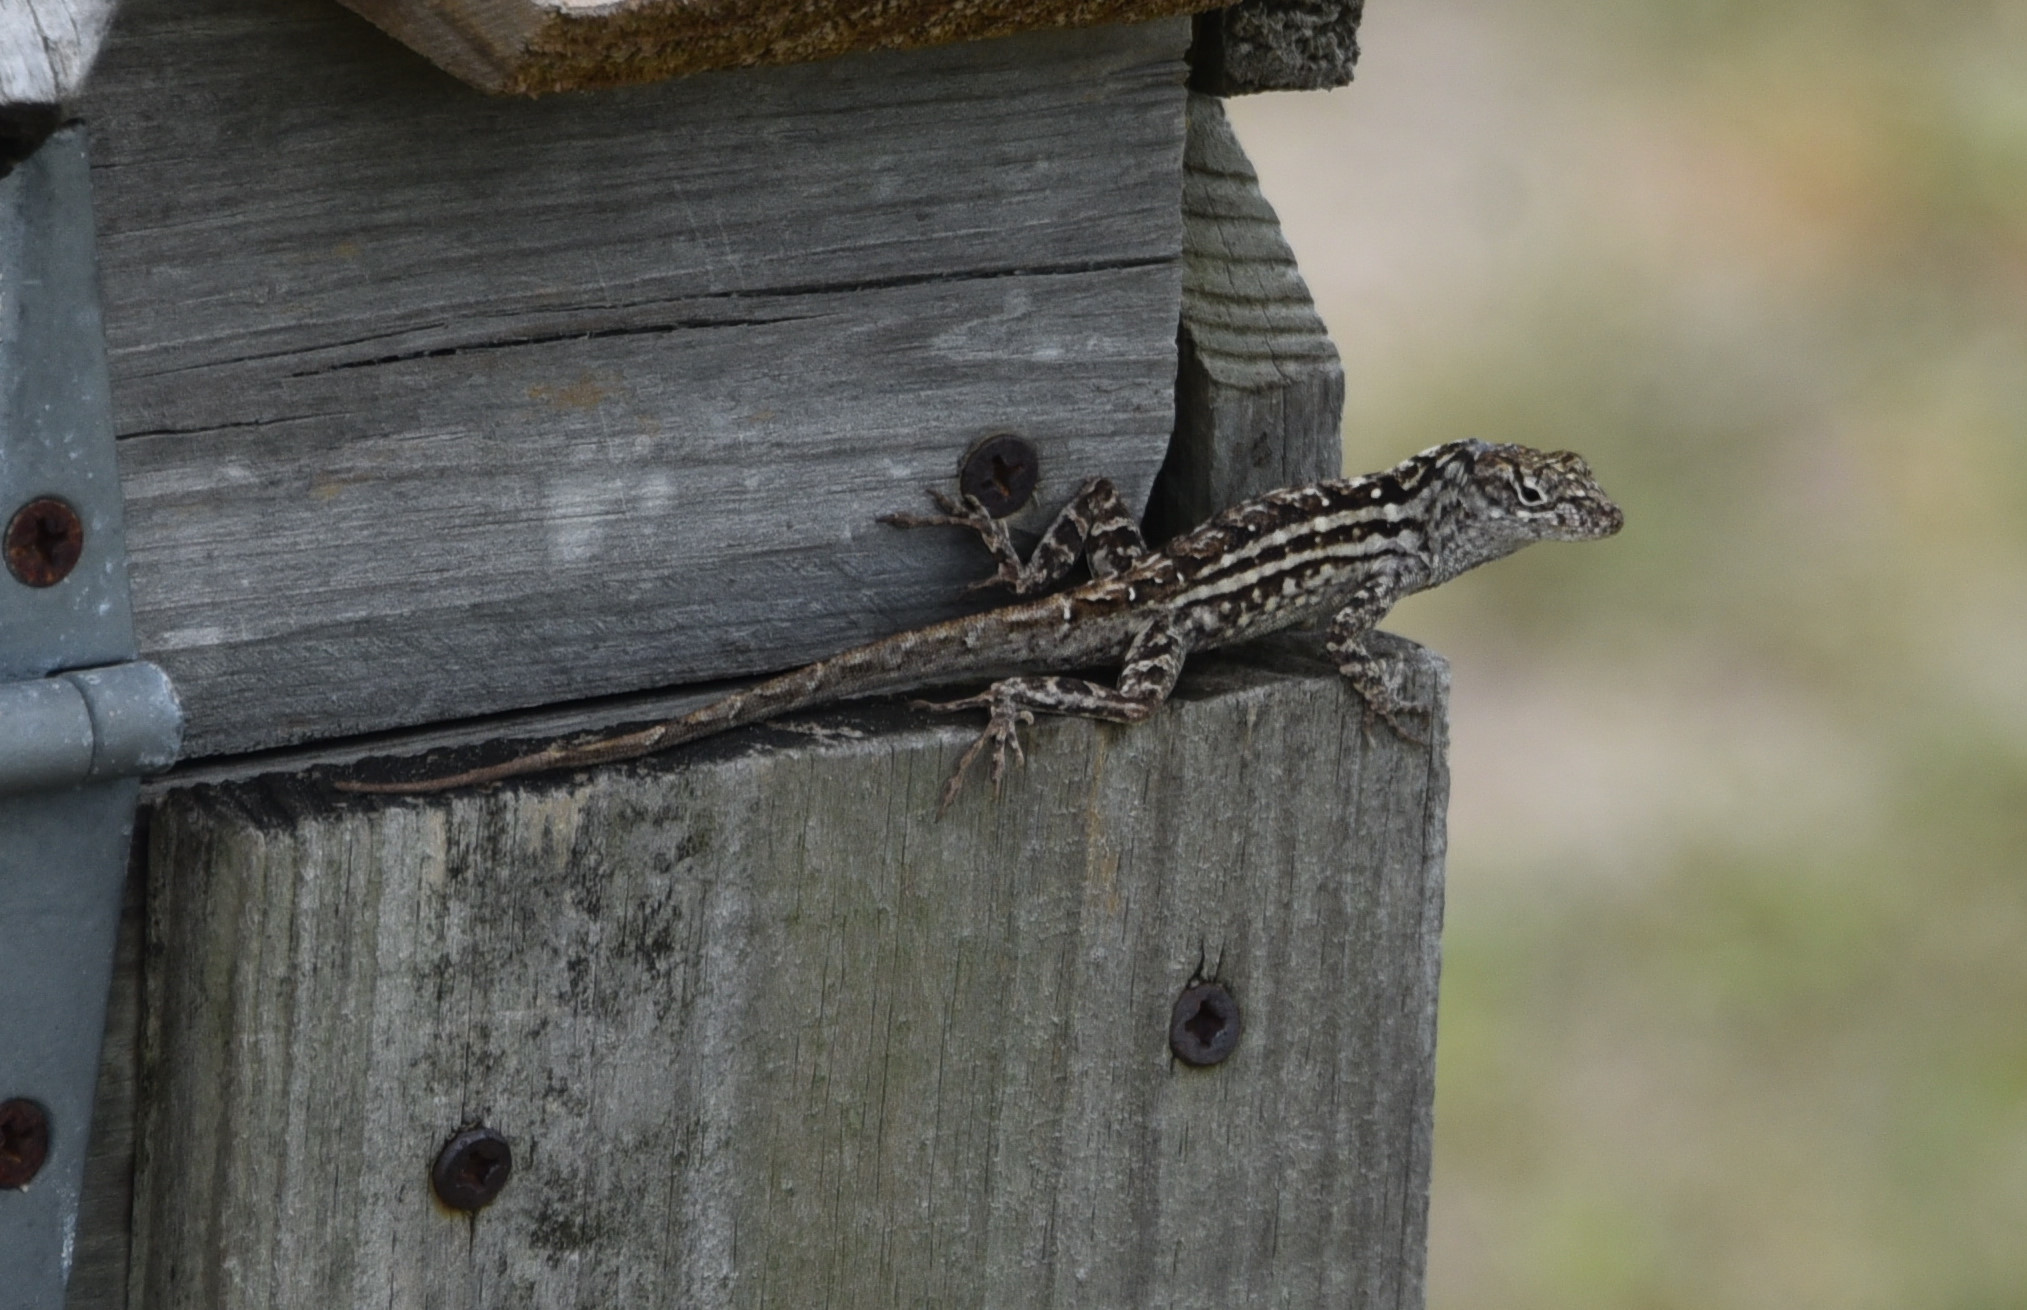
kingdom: Animalia
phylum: Chordata
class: Squamata
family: Dactyloidae
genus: Anolis
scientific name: Anolis sagrei
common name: Brown anole
